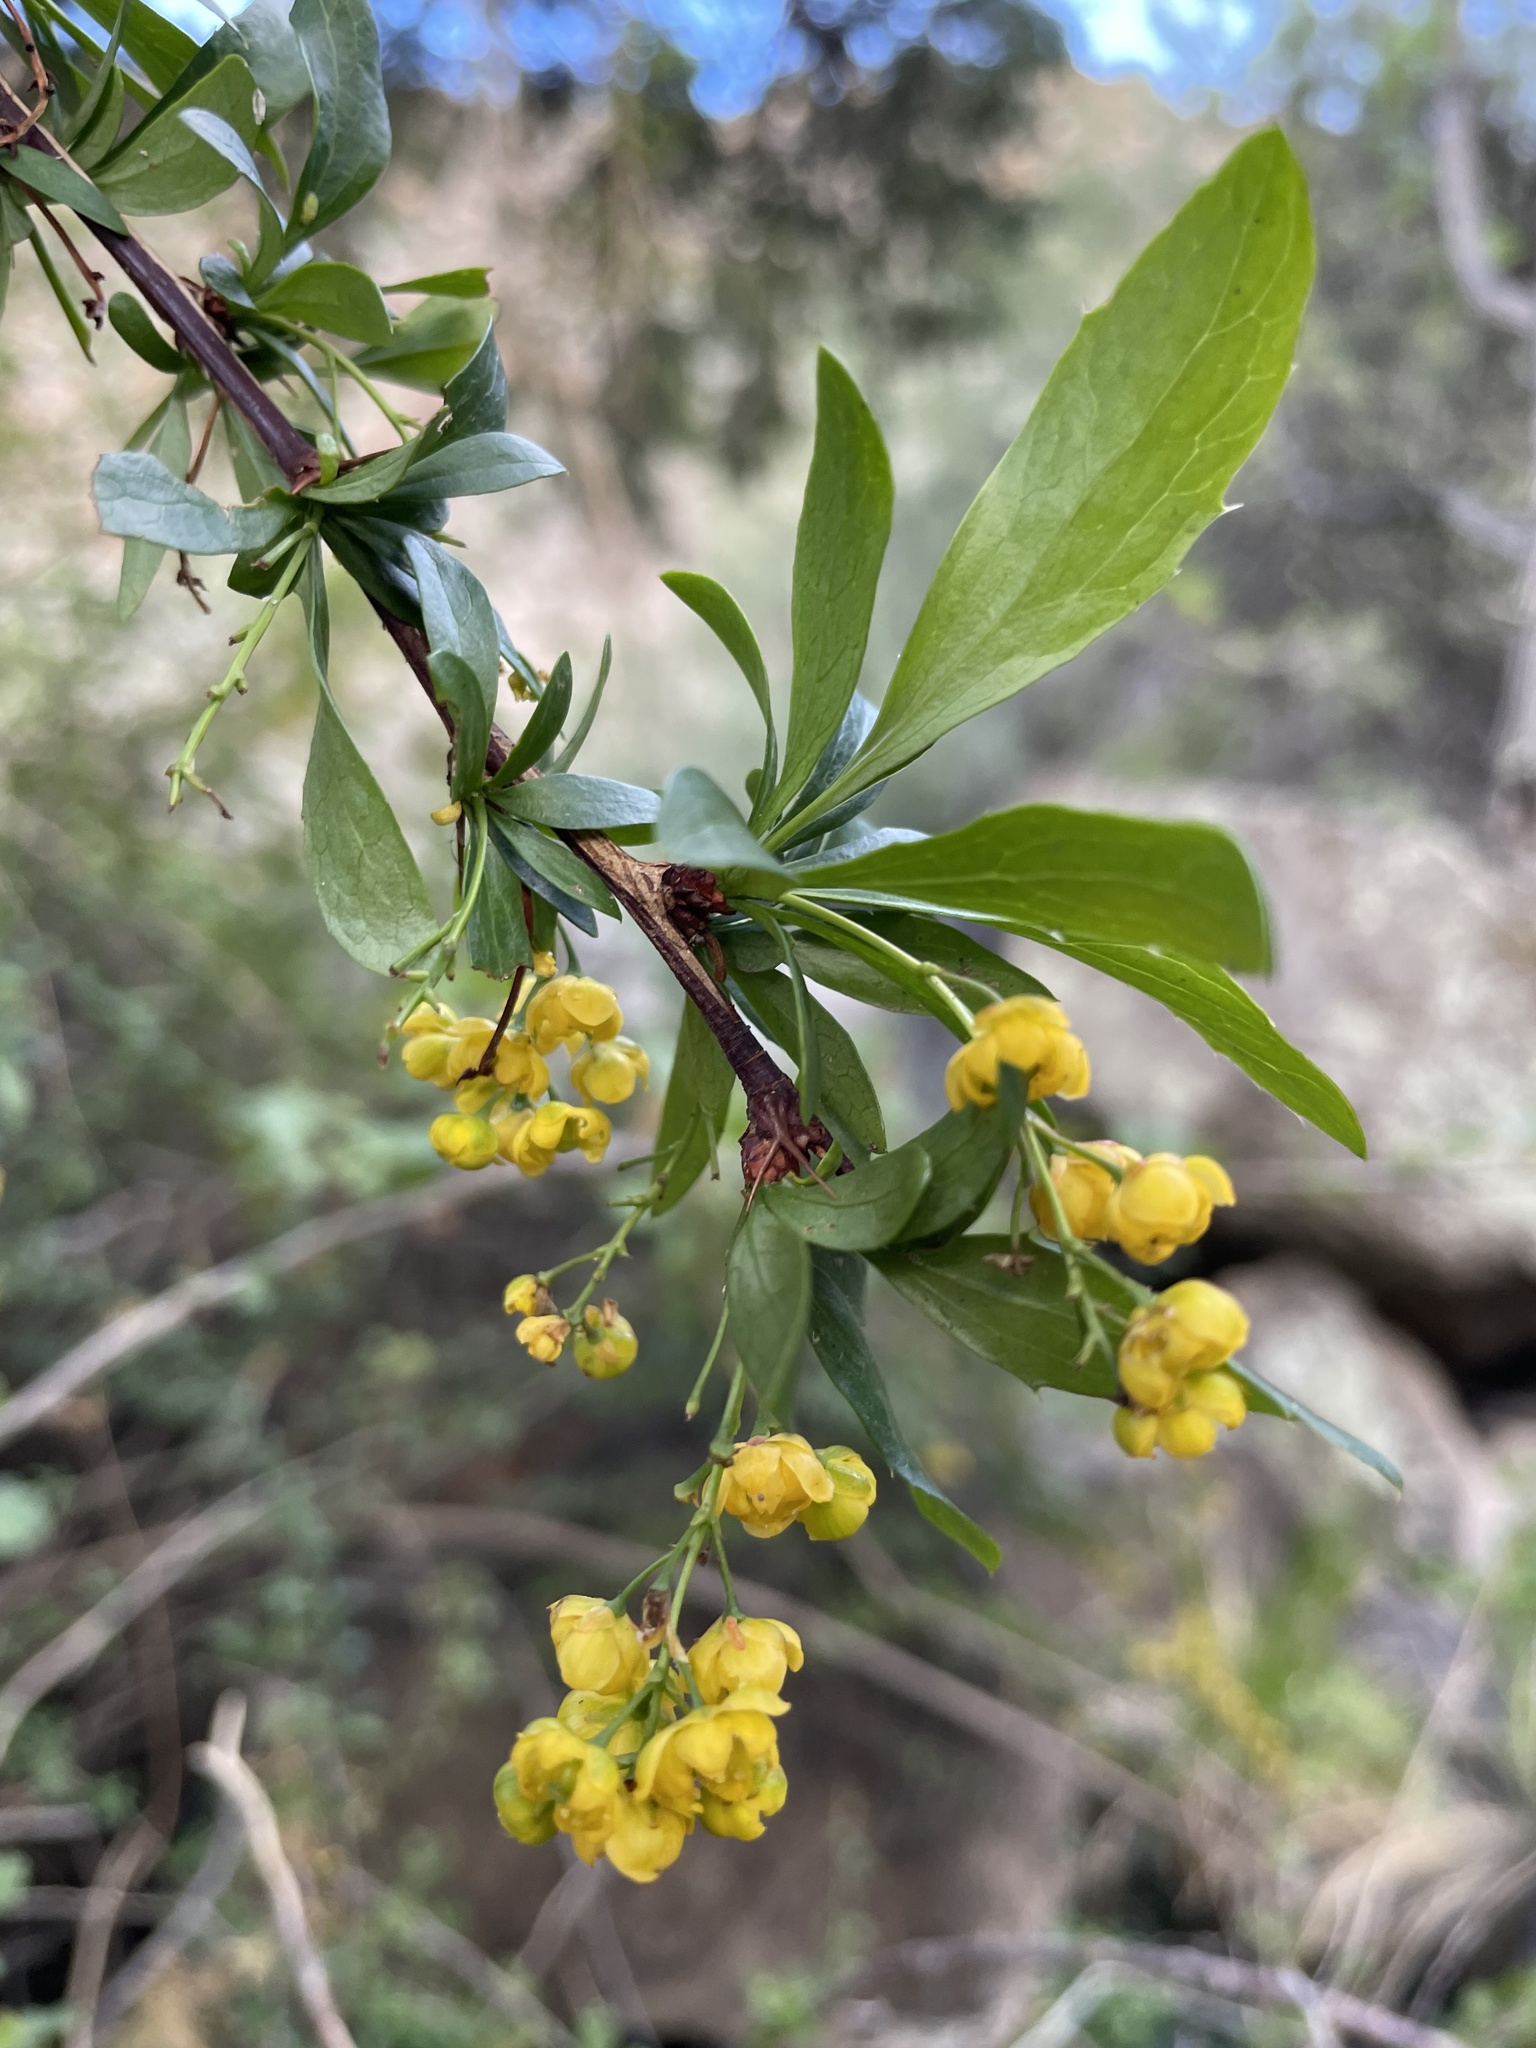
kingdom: Plantae
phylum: Tracheophyta
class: Magnoliopsida
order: Ranunculales
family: Berberidaceae
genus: Berberis
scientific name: Berberis fendleri
